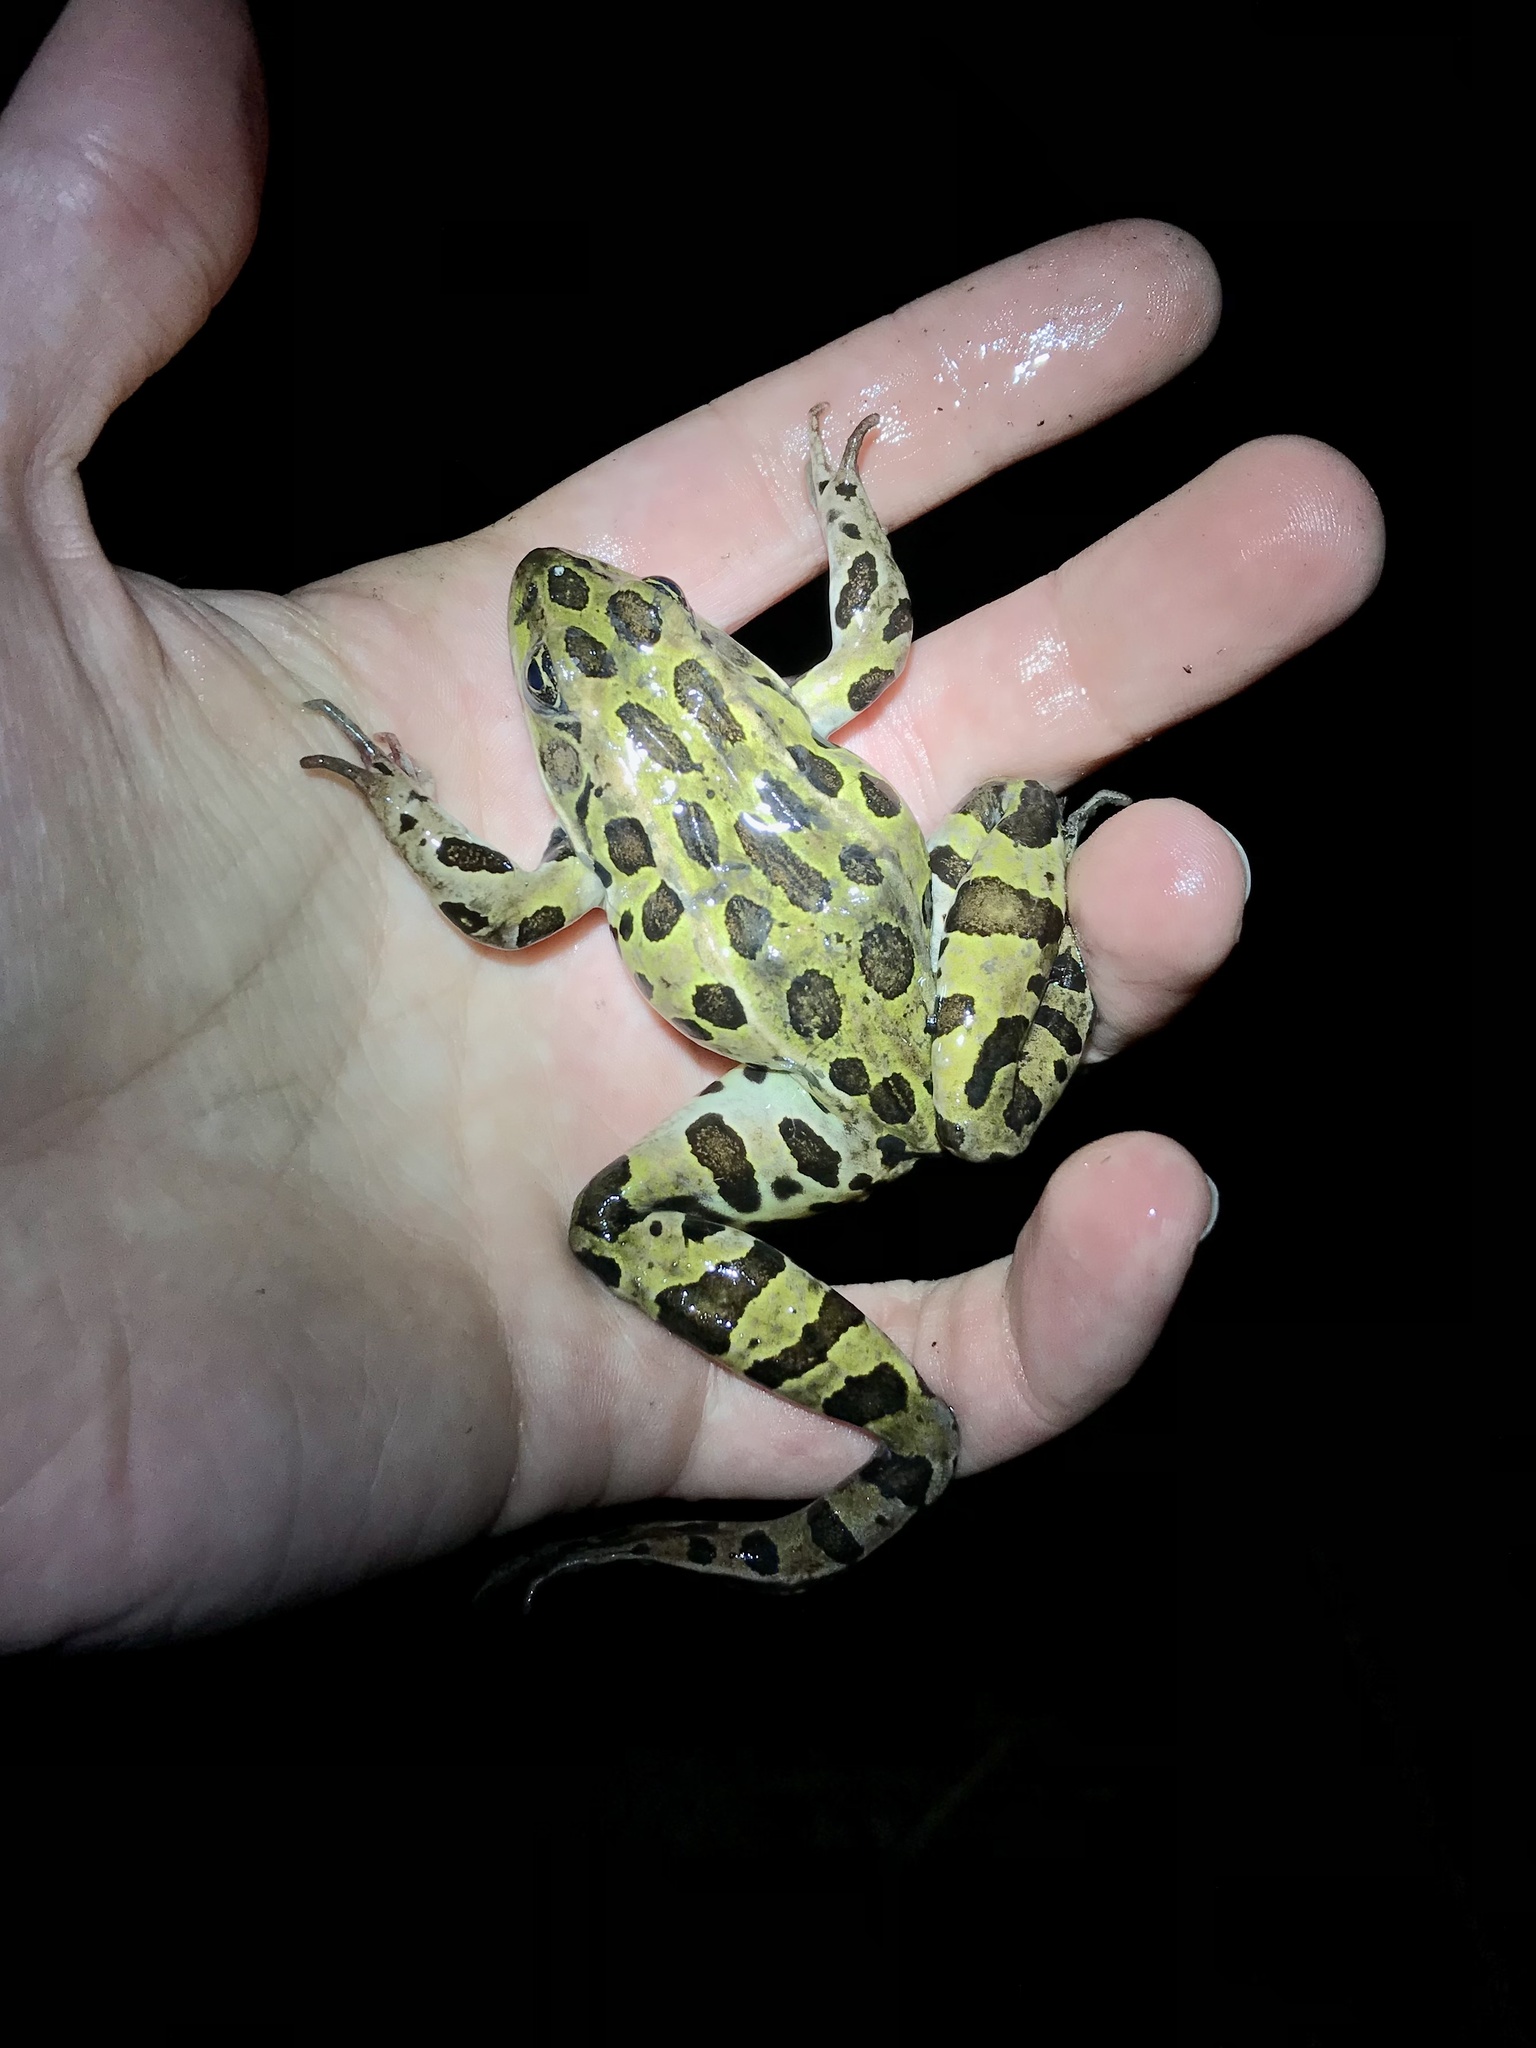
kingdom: Animalia
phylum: Chordata
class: Amphibia
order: Anura
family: Ranidae
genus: Lithobates
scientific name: Lithobates pipiens
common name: Northern leopard frog
